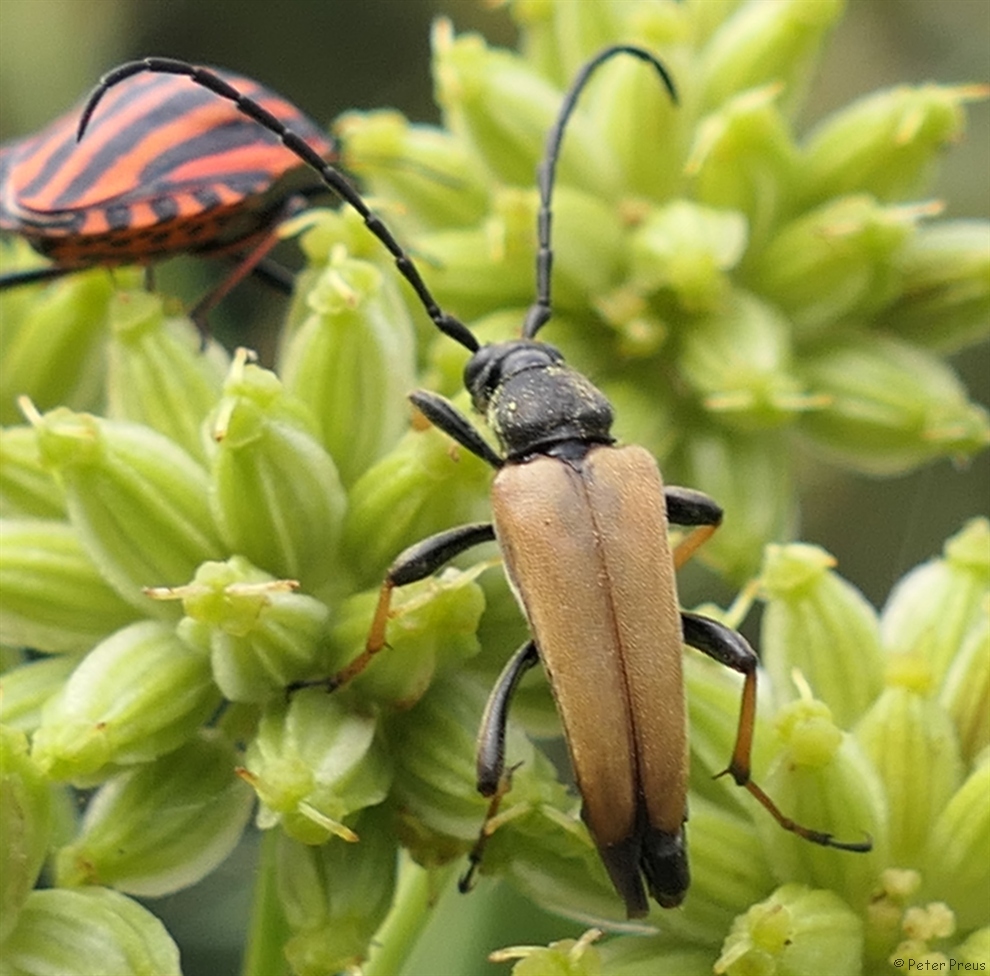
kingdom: Animalia
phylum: Arthropoda
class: Insecta
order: Coleoptera
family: Cerambycidae
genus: Stictoleptura
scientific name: Stictoleptura rubra
